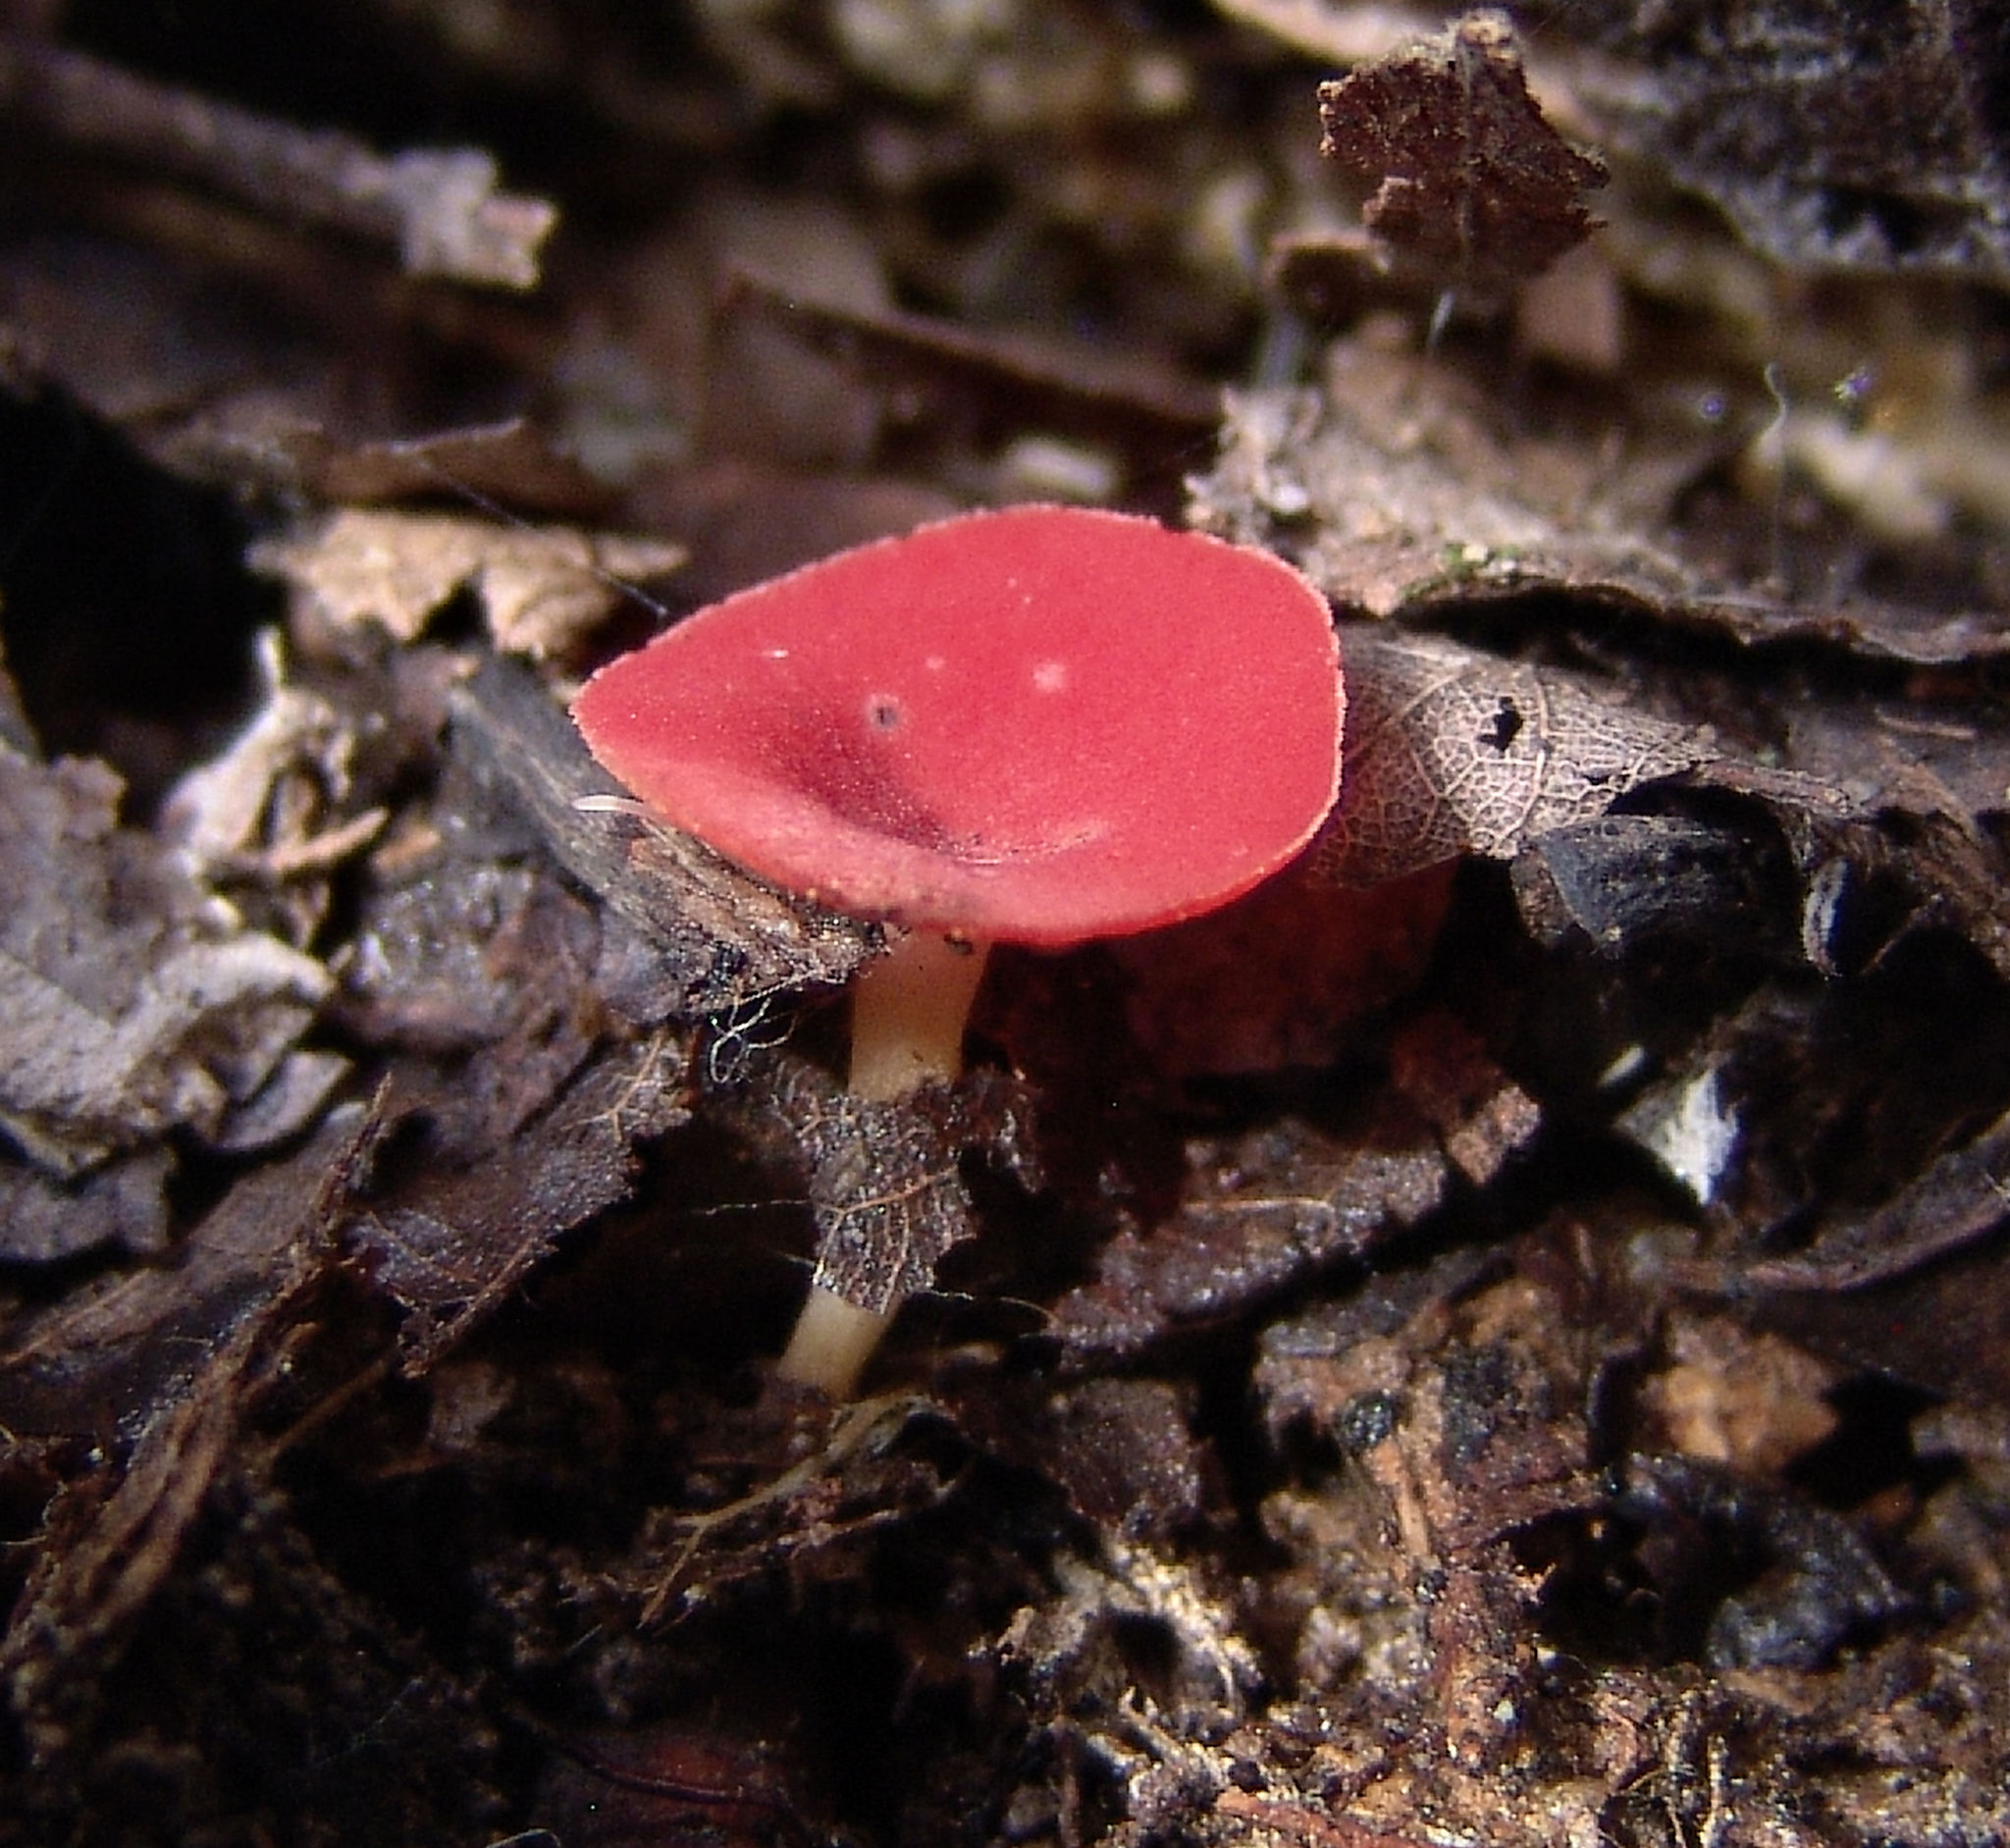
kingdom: Fungi
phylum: Ascomycota
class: Pezizomycetes
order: Pezizales
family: Sarcoscyphaceae
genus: Sarcoscypha
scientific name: Sarcoscypha occidentalis
